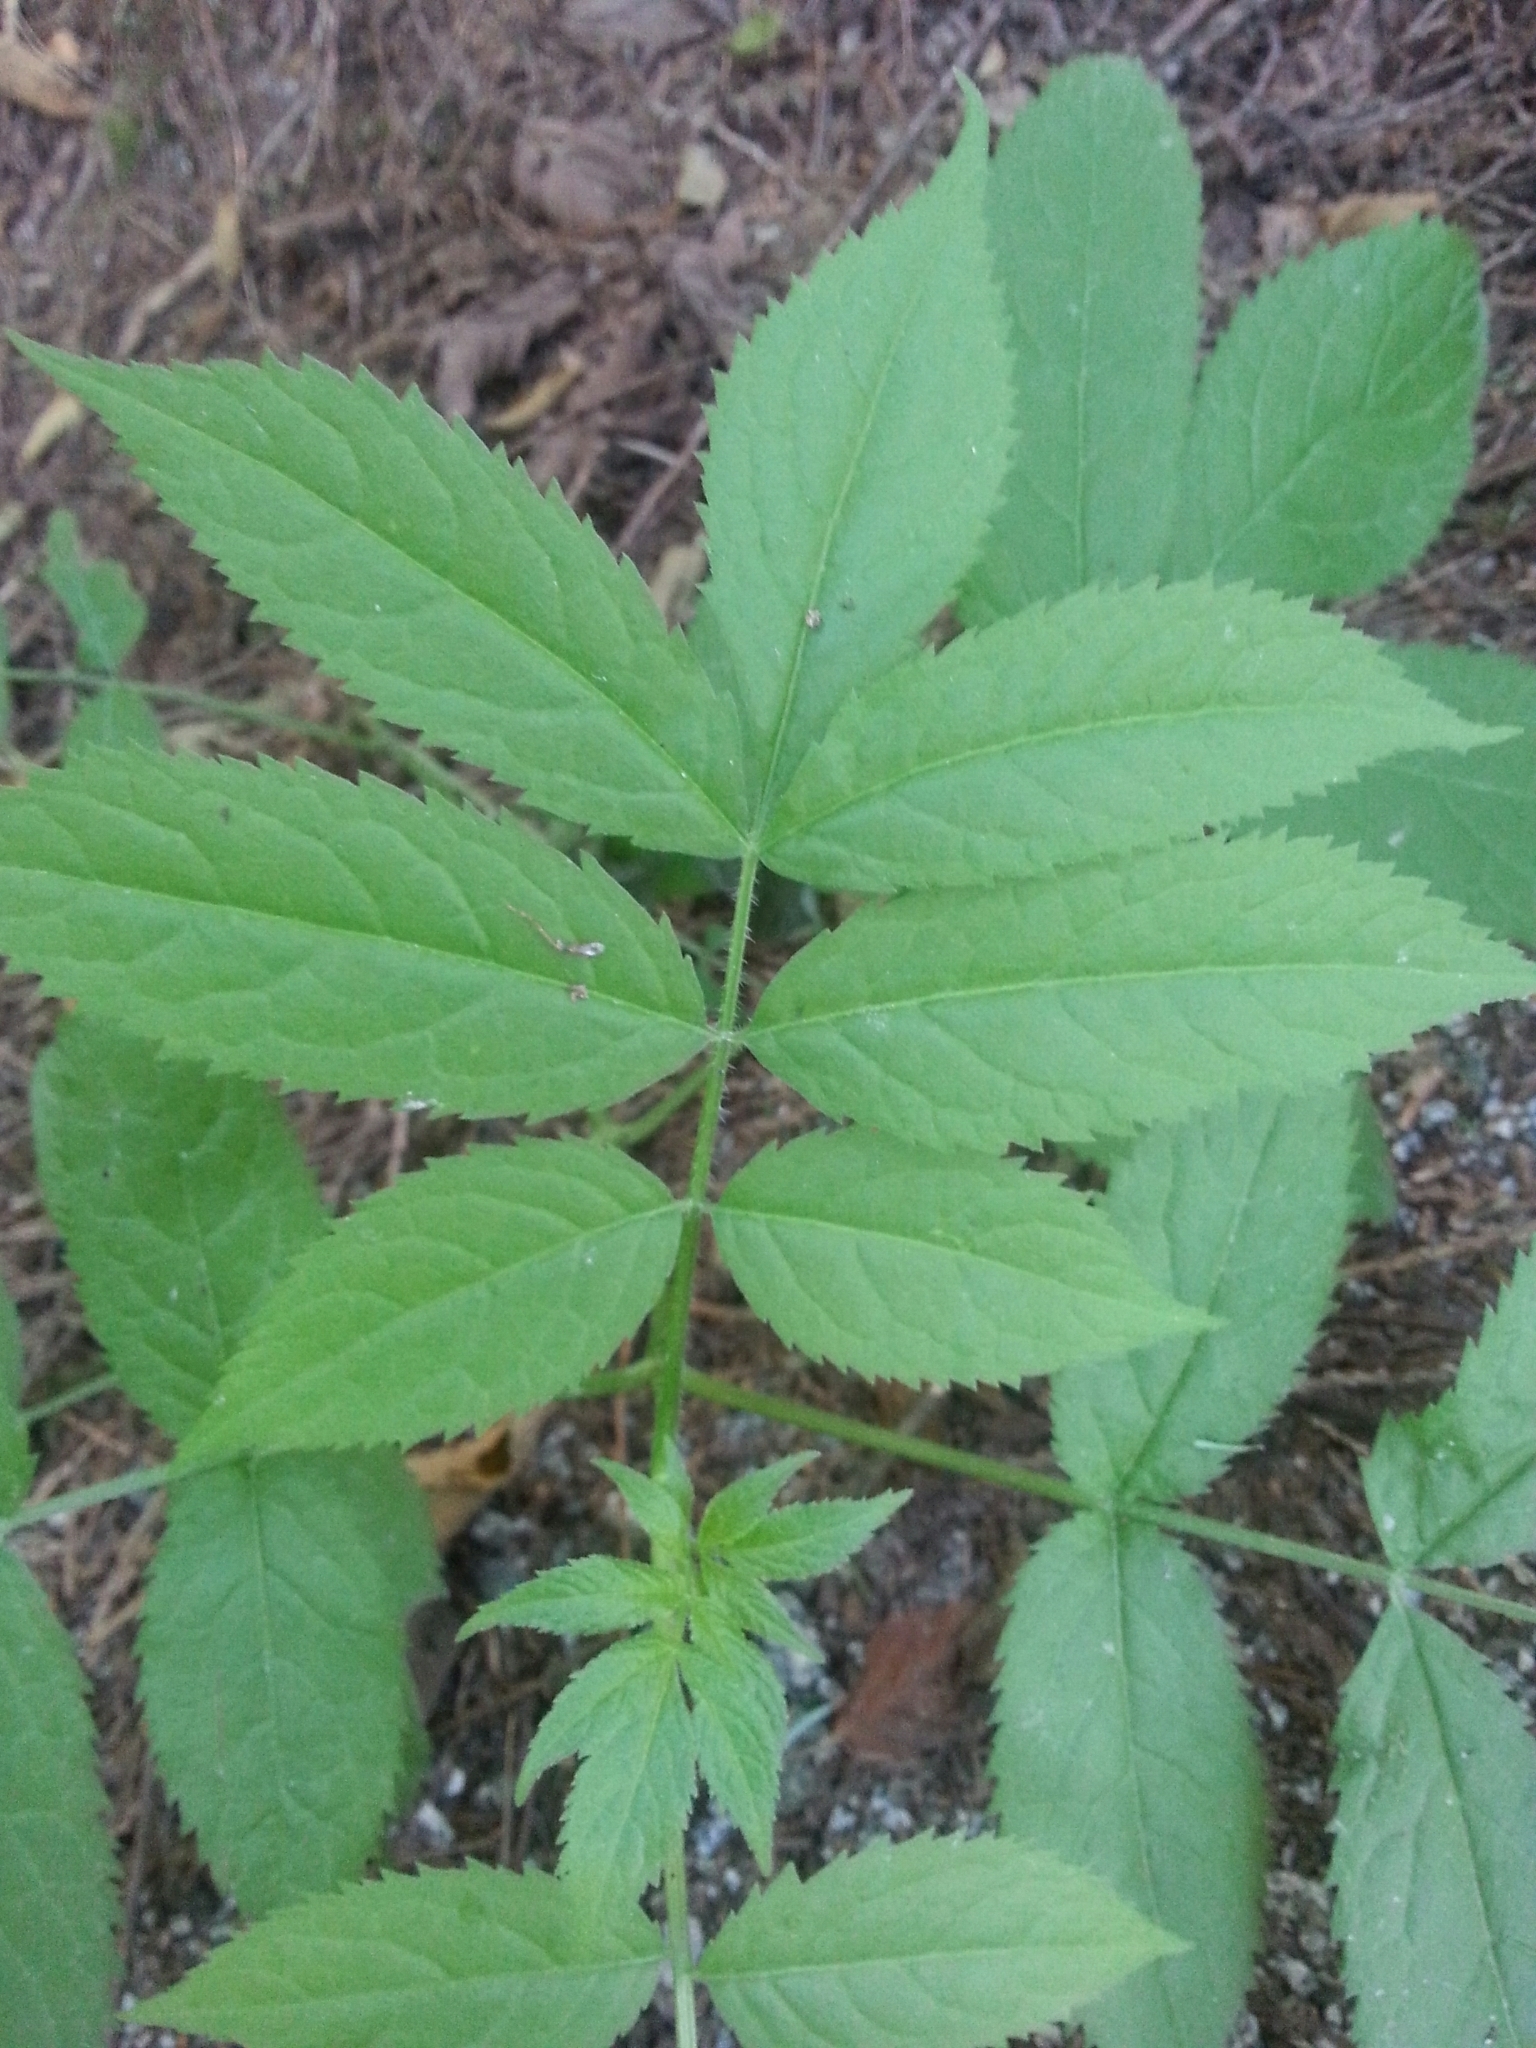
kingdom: Plantae
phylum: Tracheophyta
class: Magnoliopsida
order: Dipsacales
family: Viburnaceae
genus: Sambucus
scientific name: Sambucus racemosa
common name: Red-berried elder
